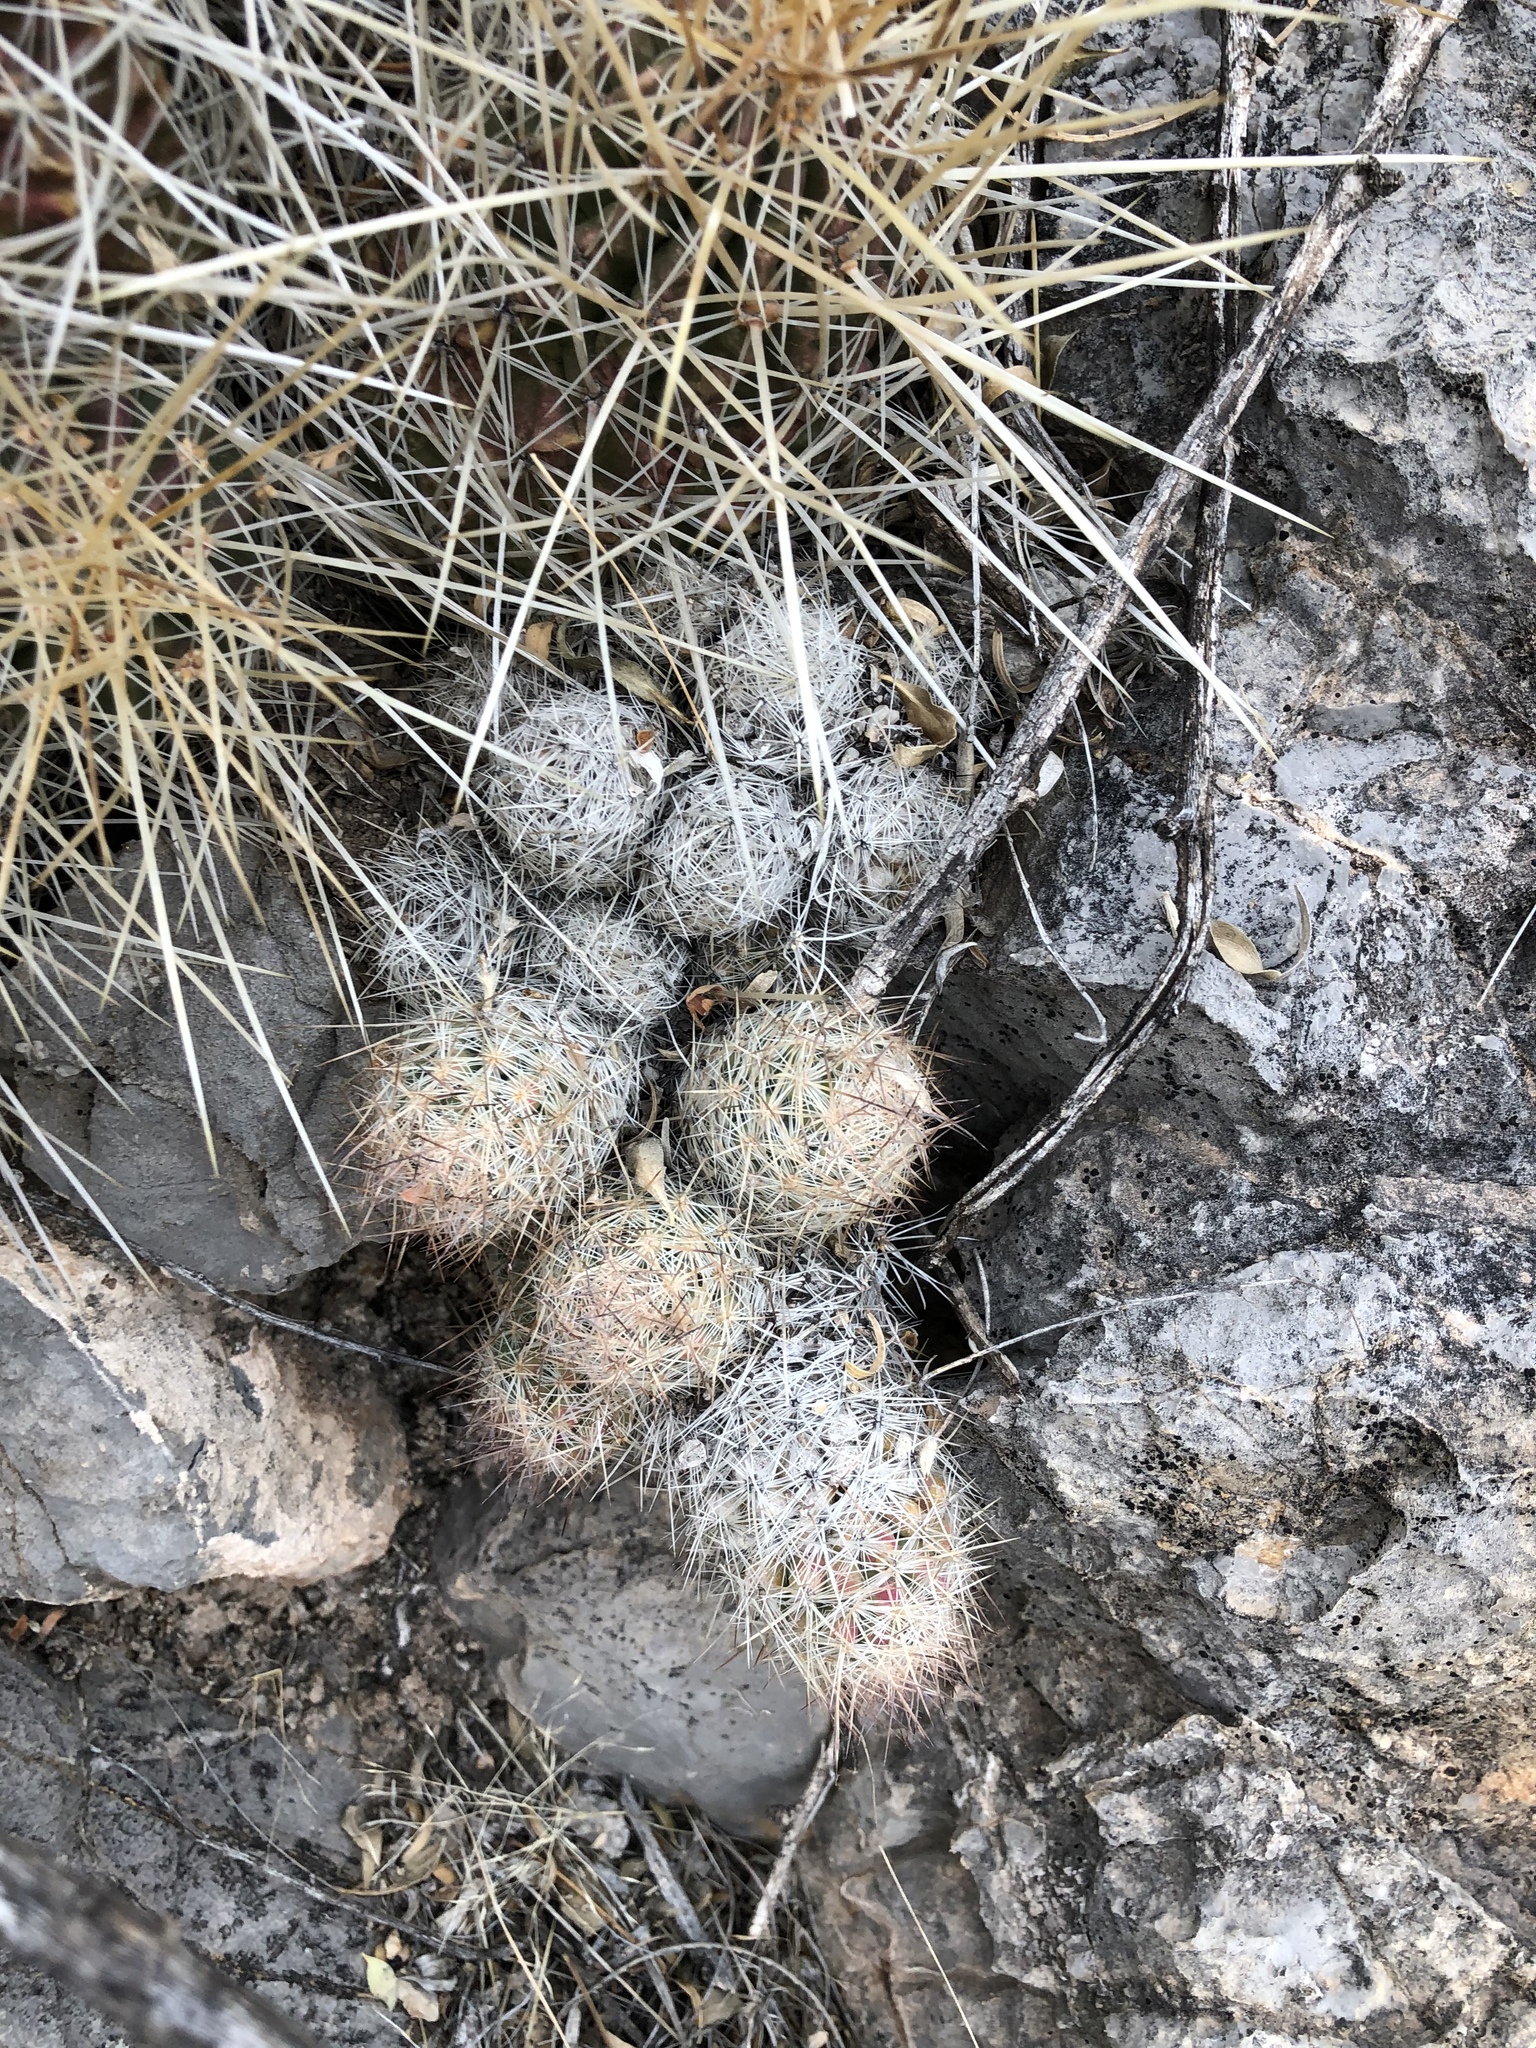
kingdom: Plantae
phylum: Tracheophyta
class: Magnoliopsida
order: Caryophyllales
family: Cactaceae
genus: Pelecyphora
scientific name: Pelecyphora tuberculosa
